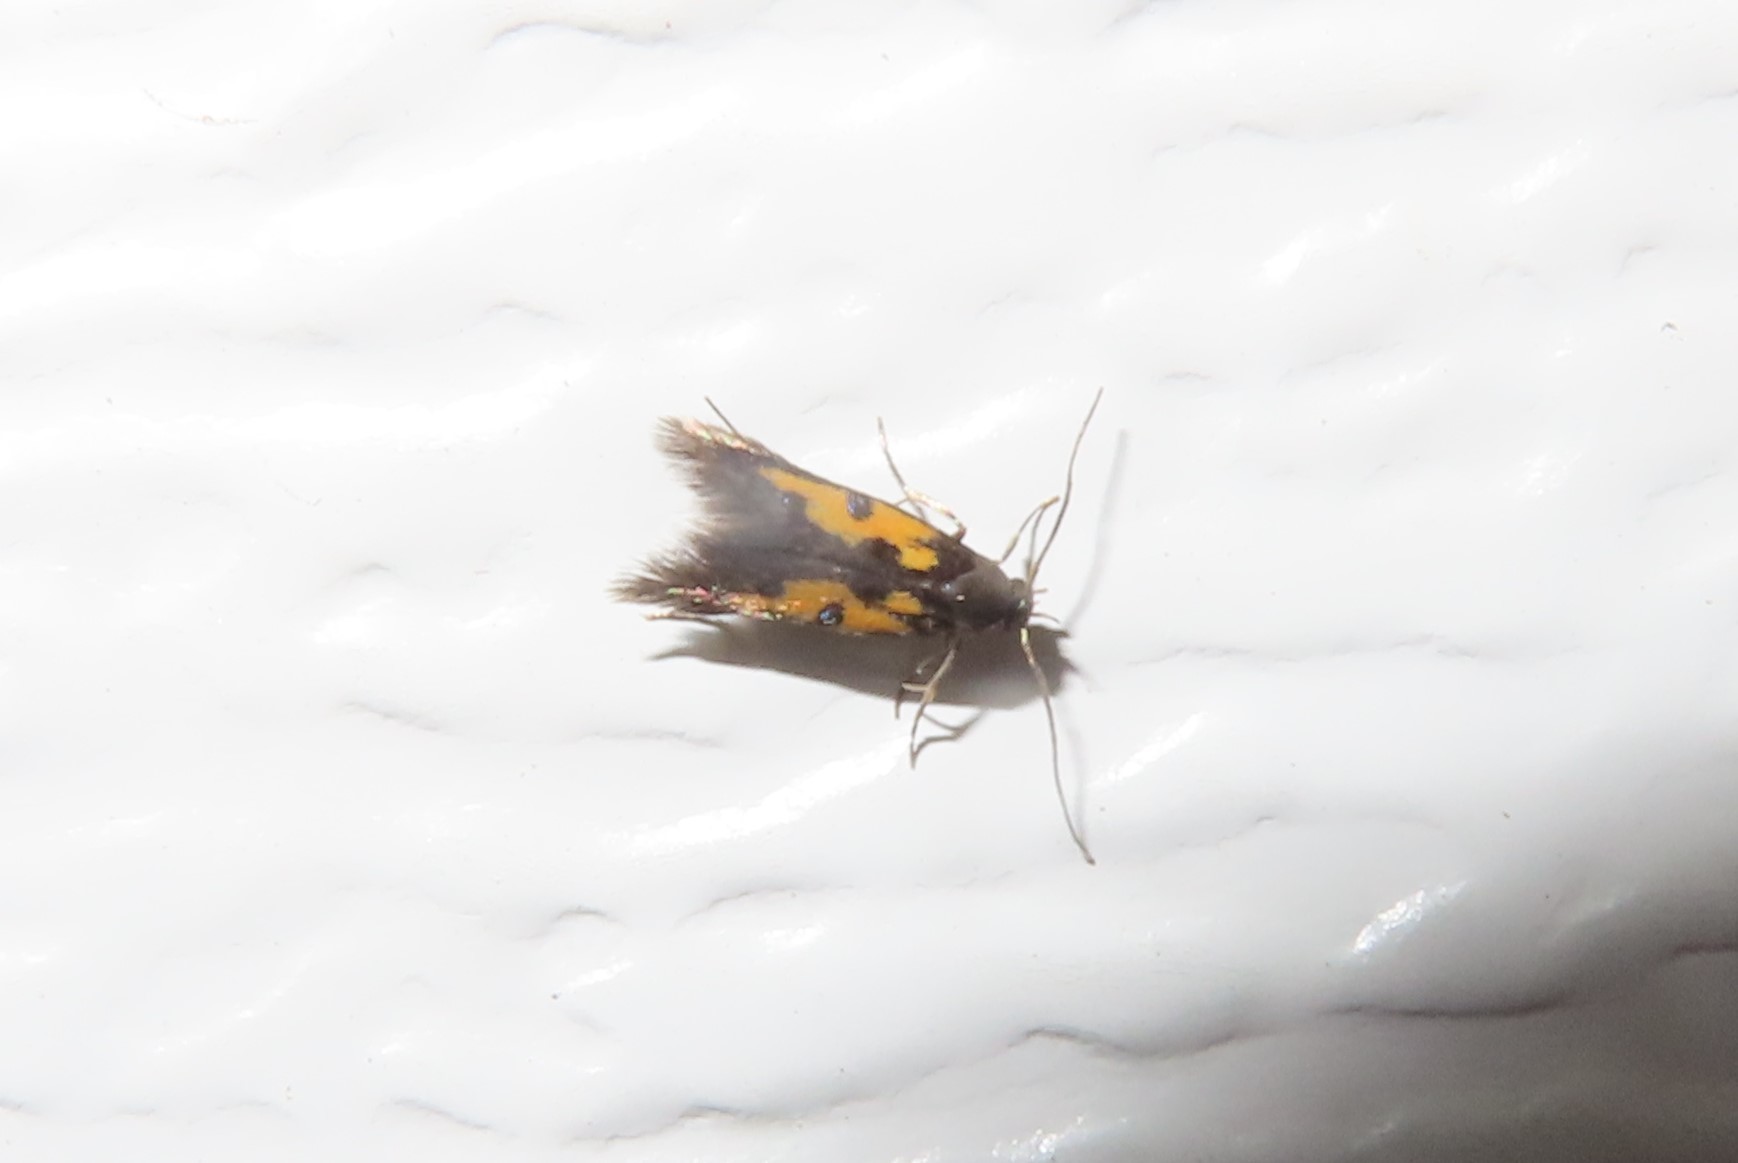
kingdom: Animalia
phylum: Arthropoda
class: Insecta
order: Lepidoptera
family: Elachistidae
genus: Chrysoclista
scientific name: Chrysoclista linneela
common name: Lime cosmet
